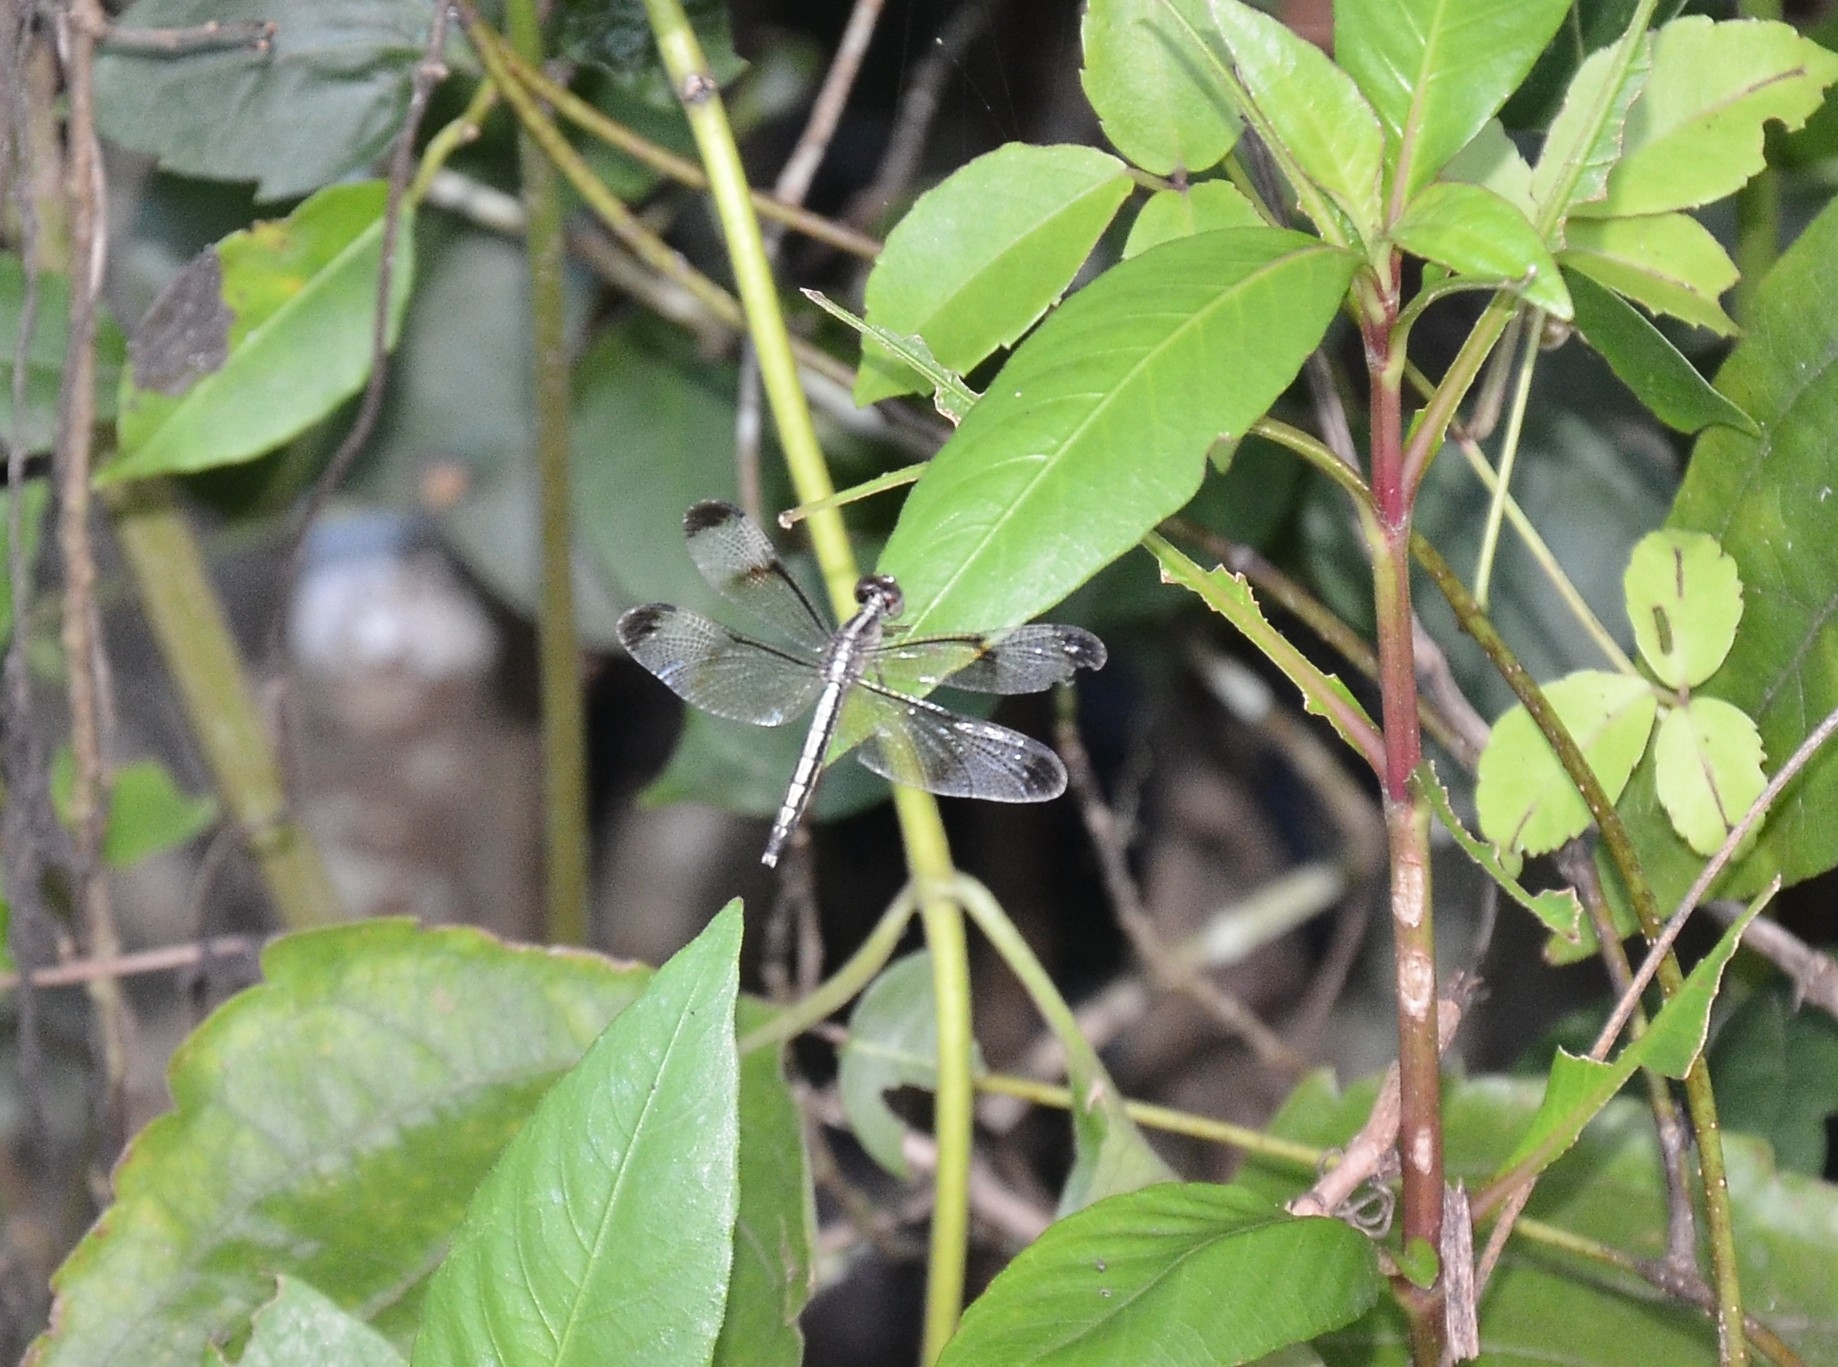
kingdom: Animalia
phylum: Arthropoda
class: Insecta
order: Odonata
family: Libellulidae
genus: Neurothemis
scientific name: Neurothemis tullia
